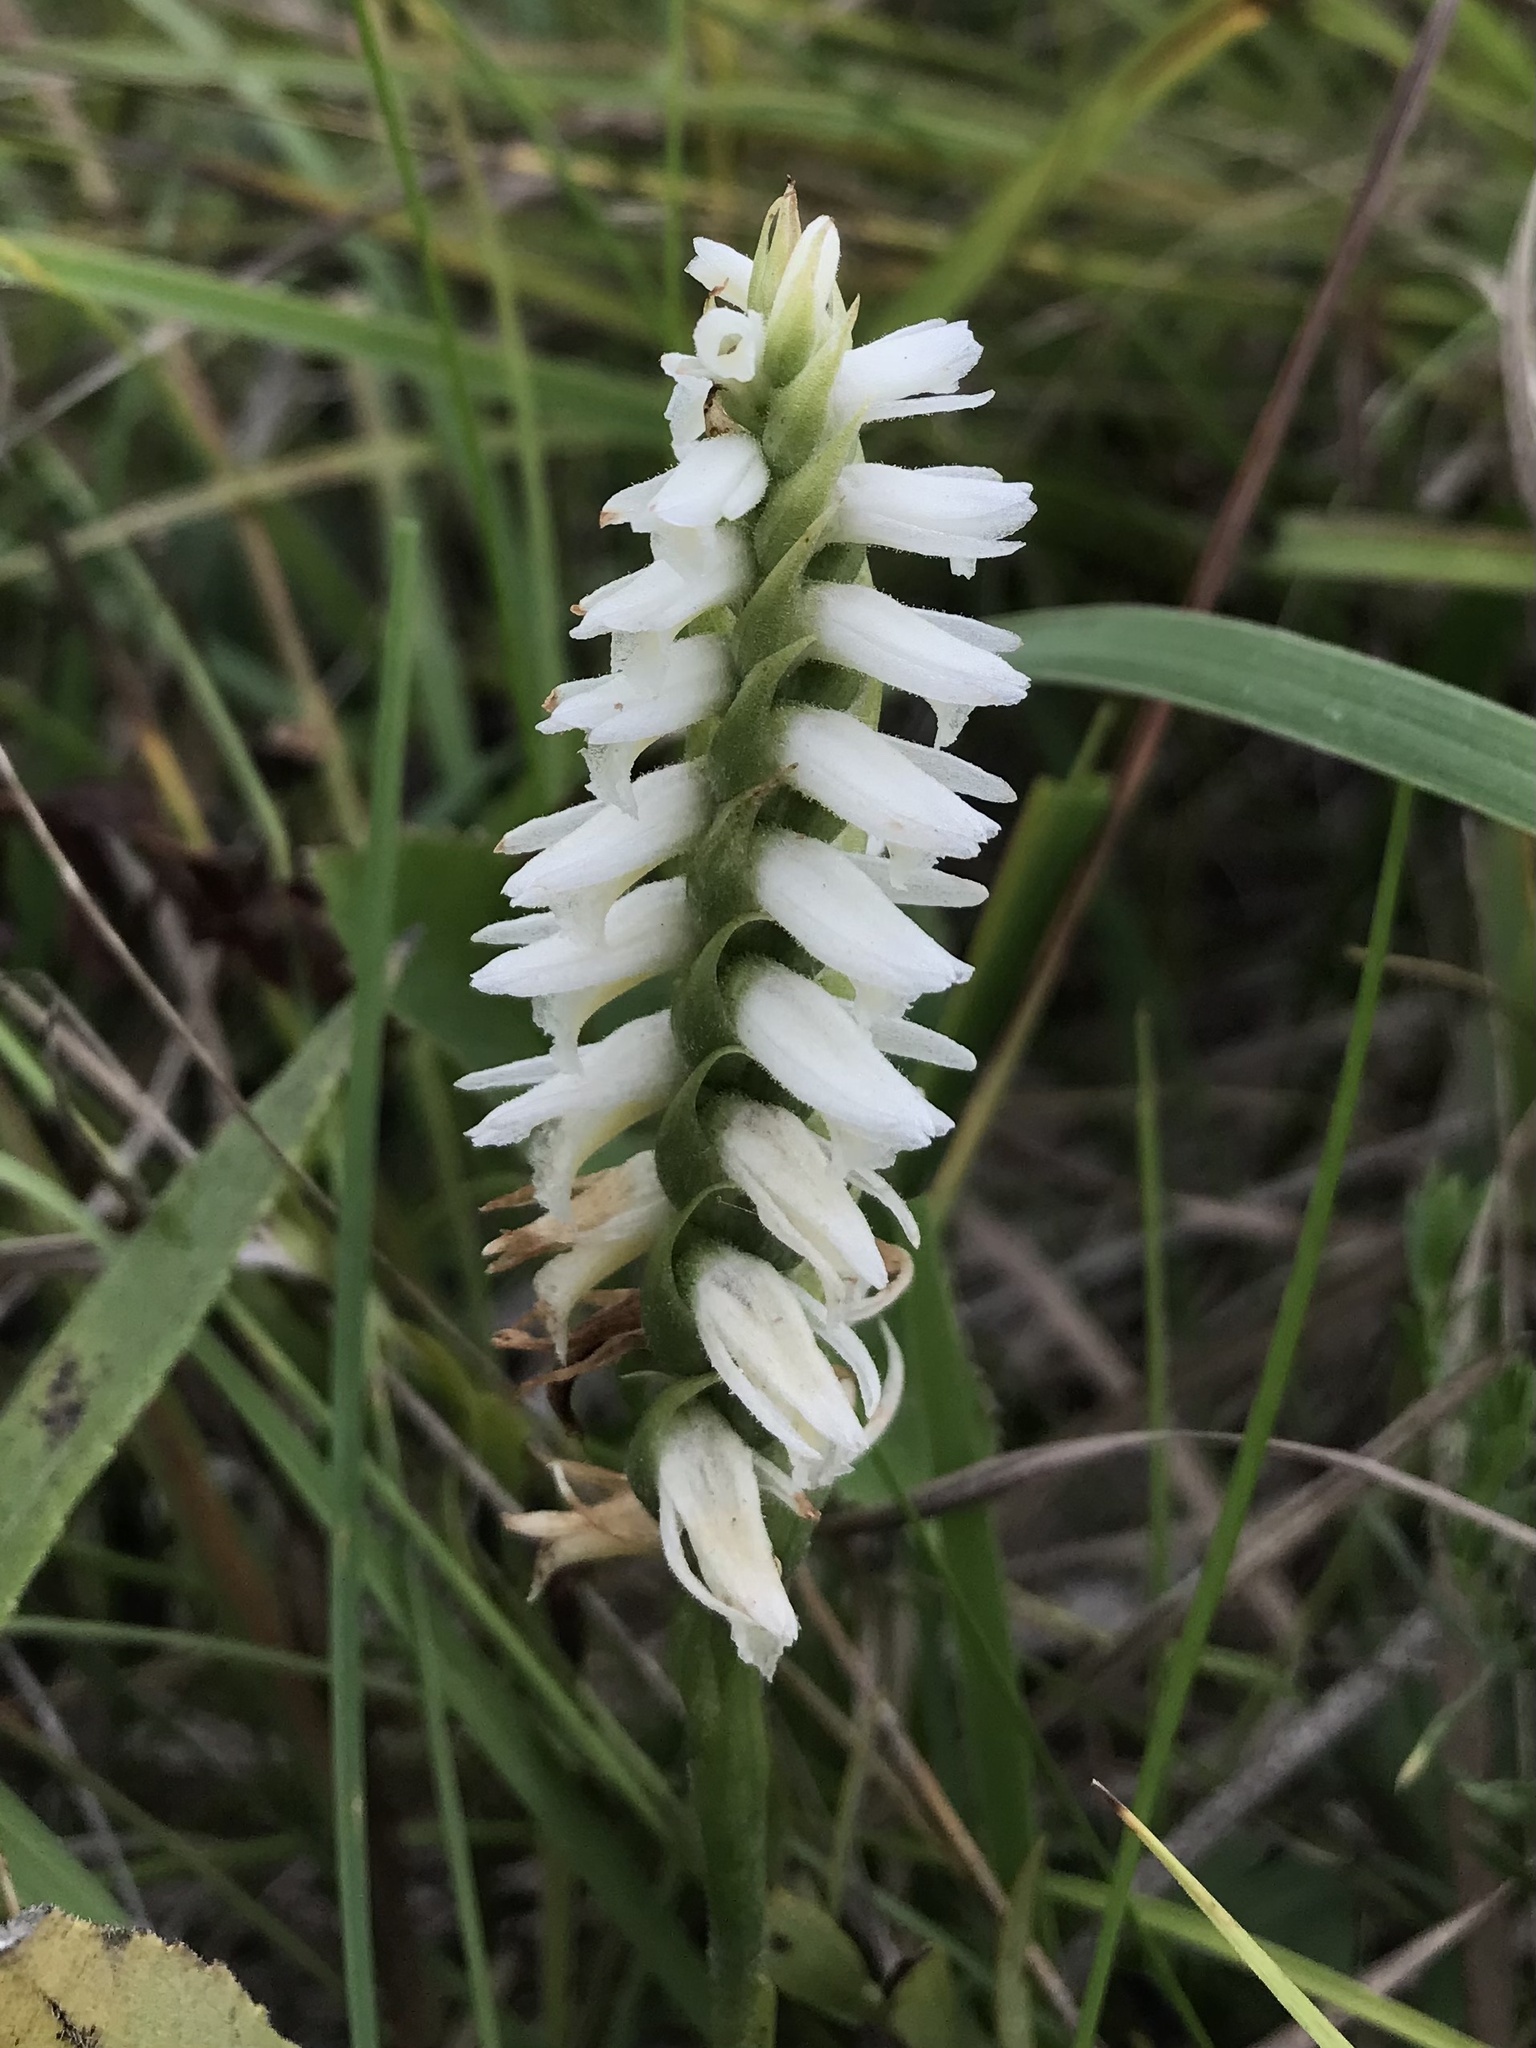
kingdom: Plantae
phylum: Tracheophyta
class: Liliopsida
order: Asparagales
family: Orchidaceae
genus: Spiranthes
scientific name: Spiranthes magnicamporum
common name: Great plains ladies'-tresses
